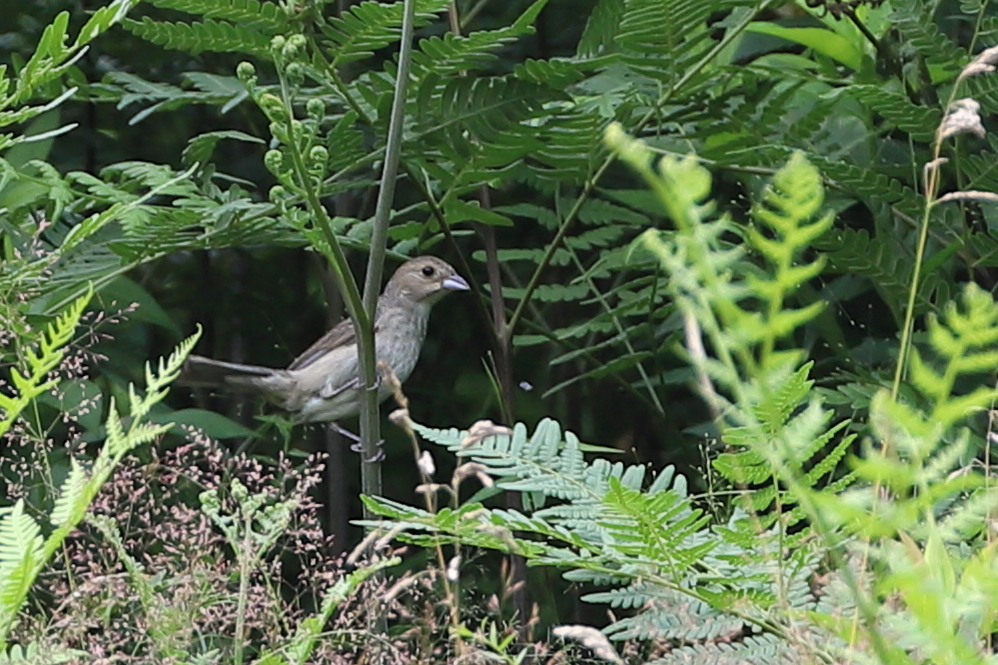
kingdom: Animalia
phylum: Chordata
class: Aves
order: Passeriformes
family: Cardinalidae
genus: Passerina
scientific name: Passerina cyanea
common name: Indigo bunting
